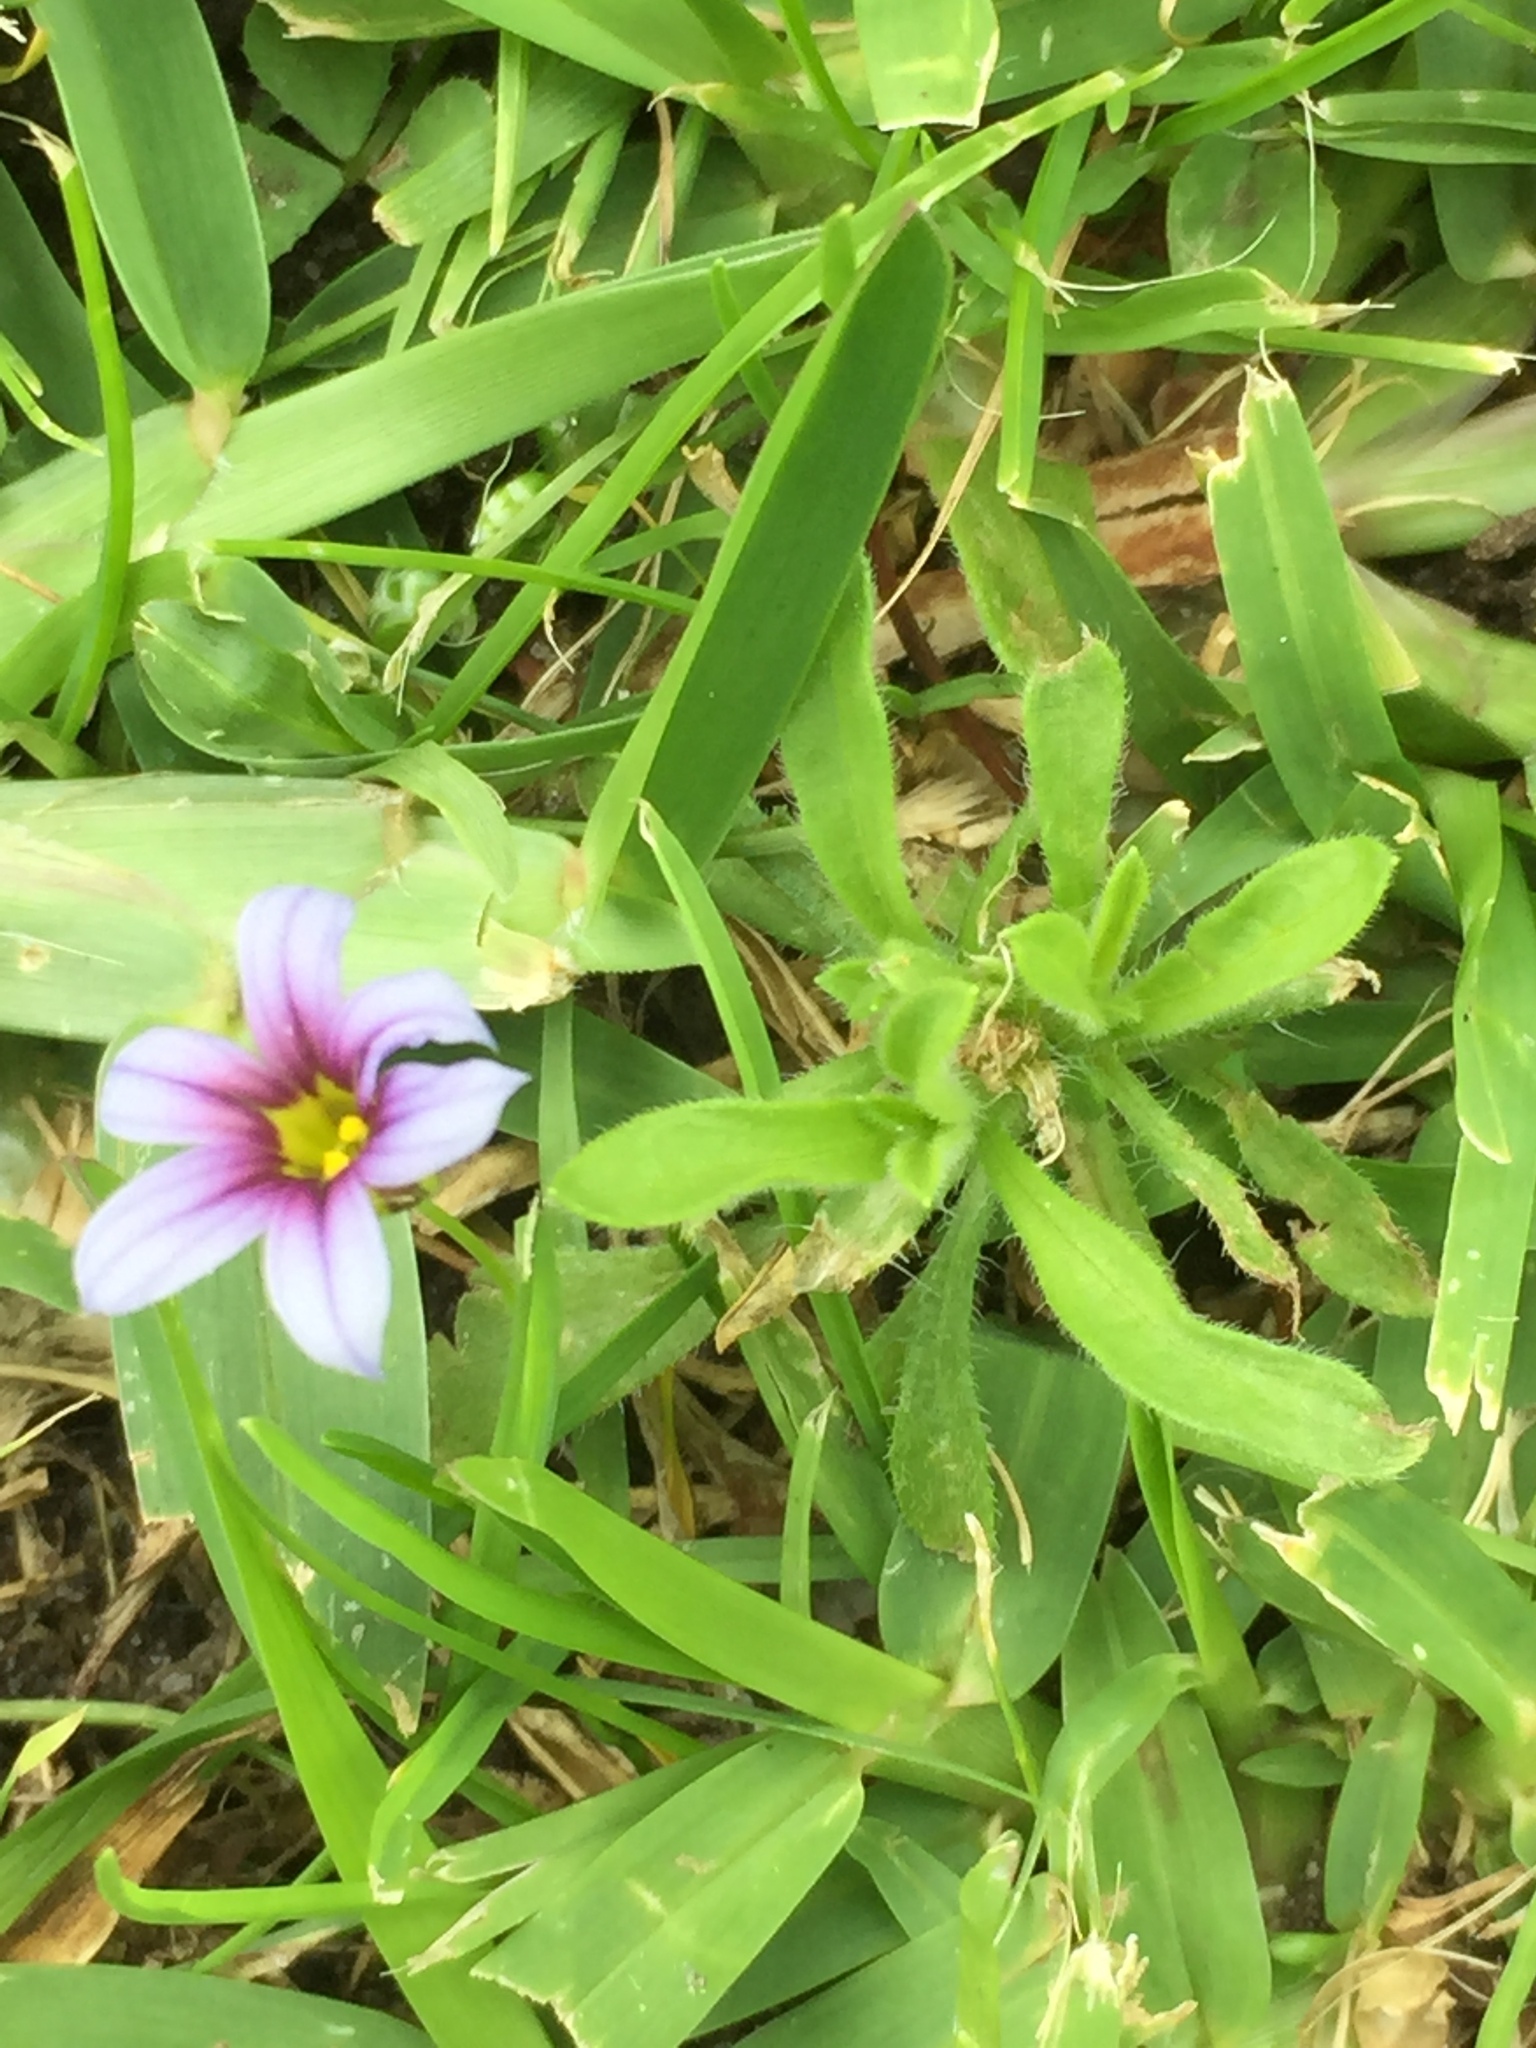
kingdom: Plantae
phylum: Tracheophyta
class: Liliopsida
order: Asparagales
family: Iridaceae
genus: Sisyrinchium
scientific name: Sisyrinchium micranthum
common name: Bermuda pigroot
